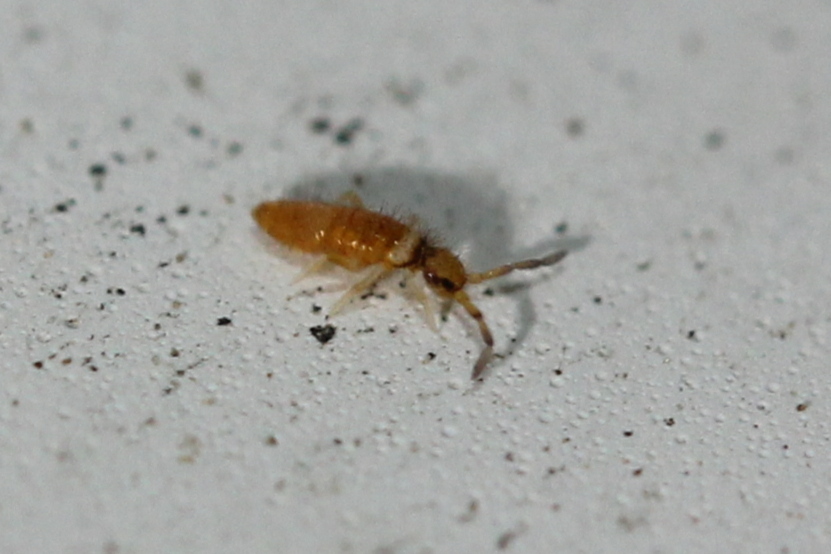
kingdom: Animalia
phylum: Arthropoda
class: Collembola
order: Entomobryomorpha
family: Entomobryidae
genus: Entomobrya
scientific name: Entomobrya atrocincta
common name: Springtail
